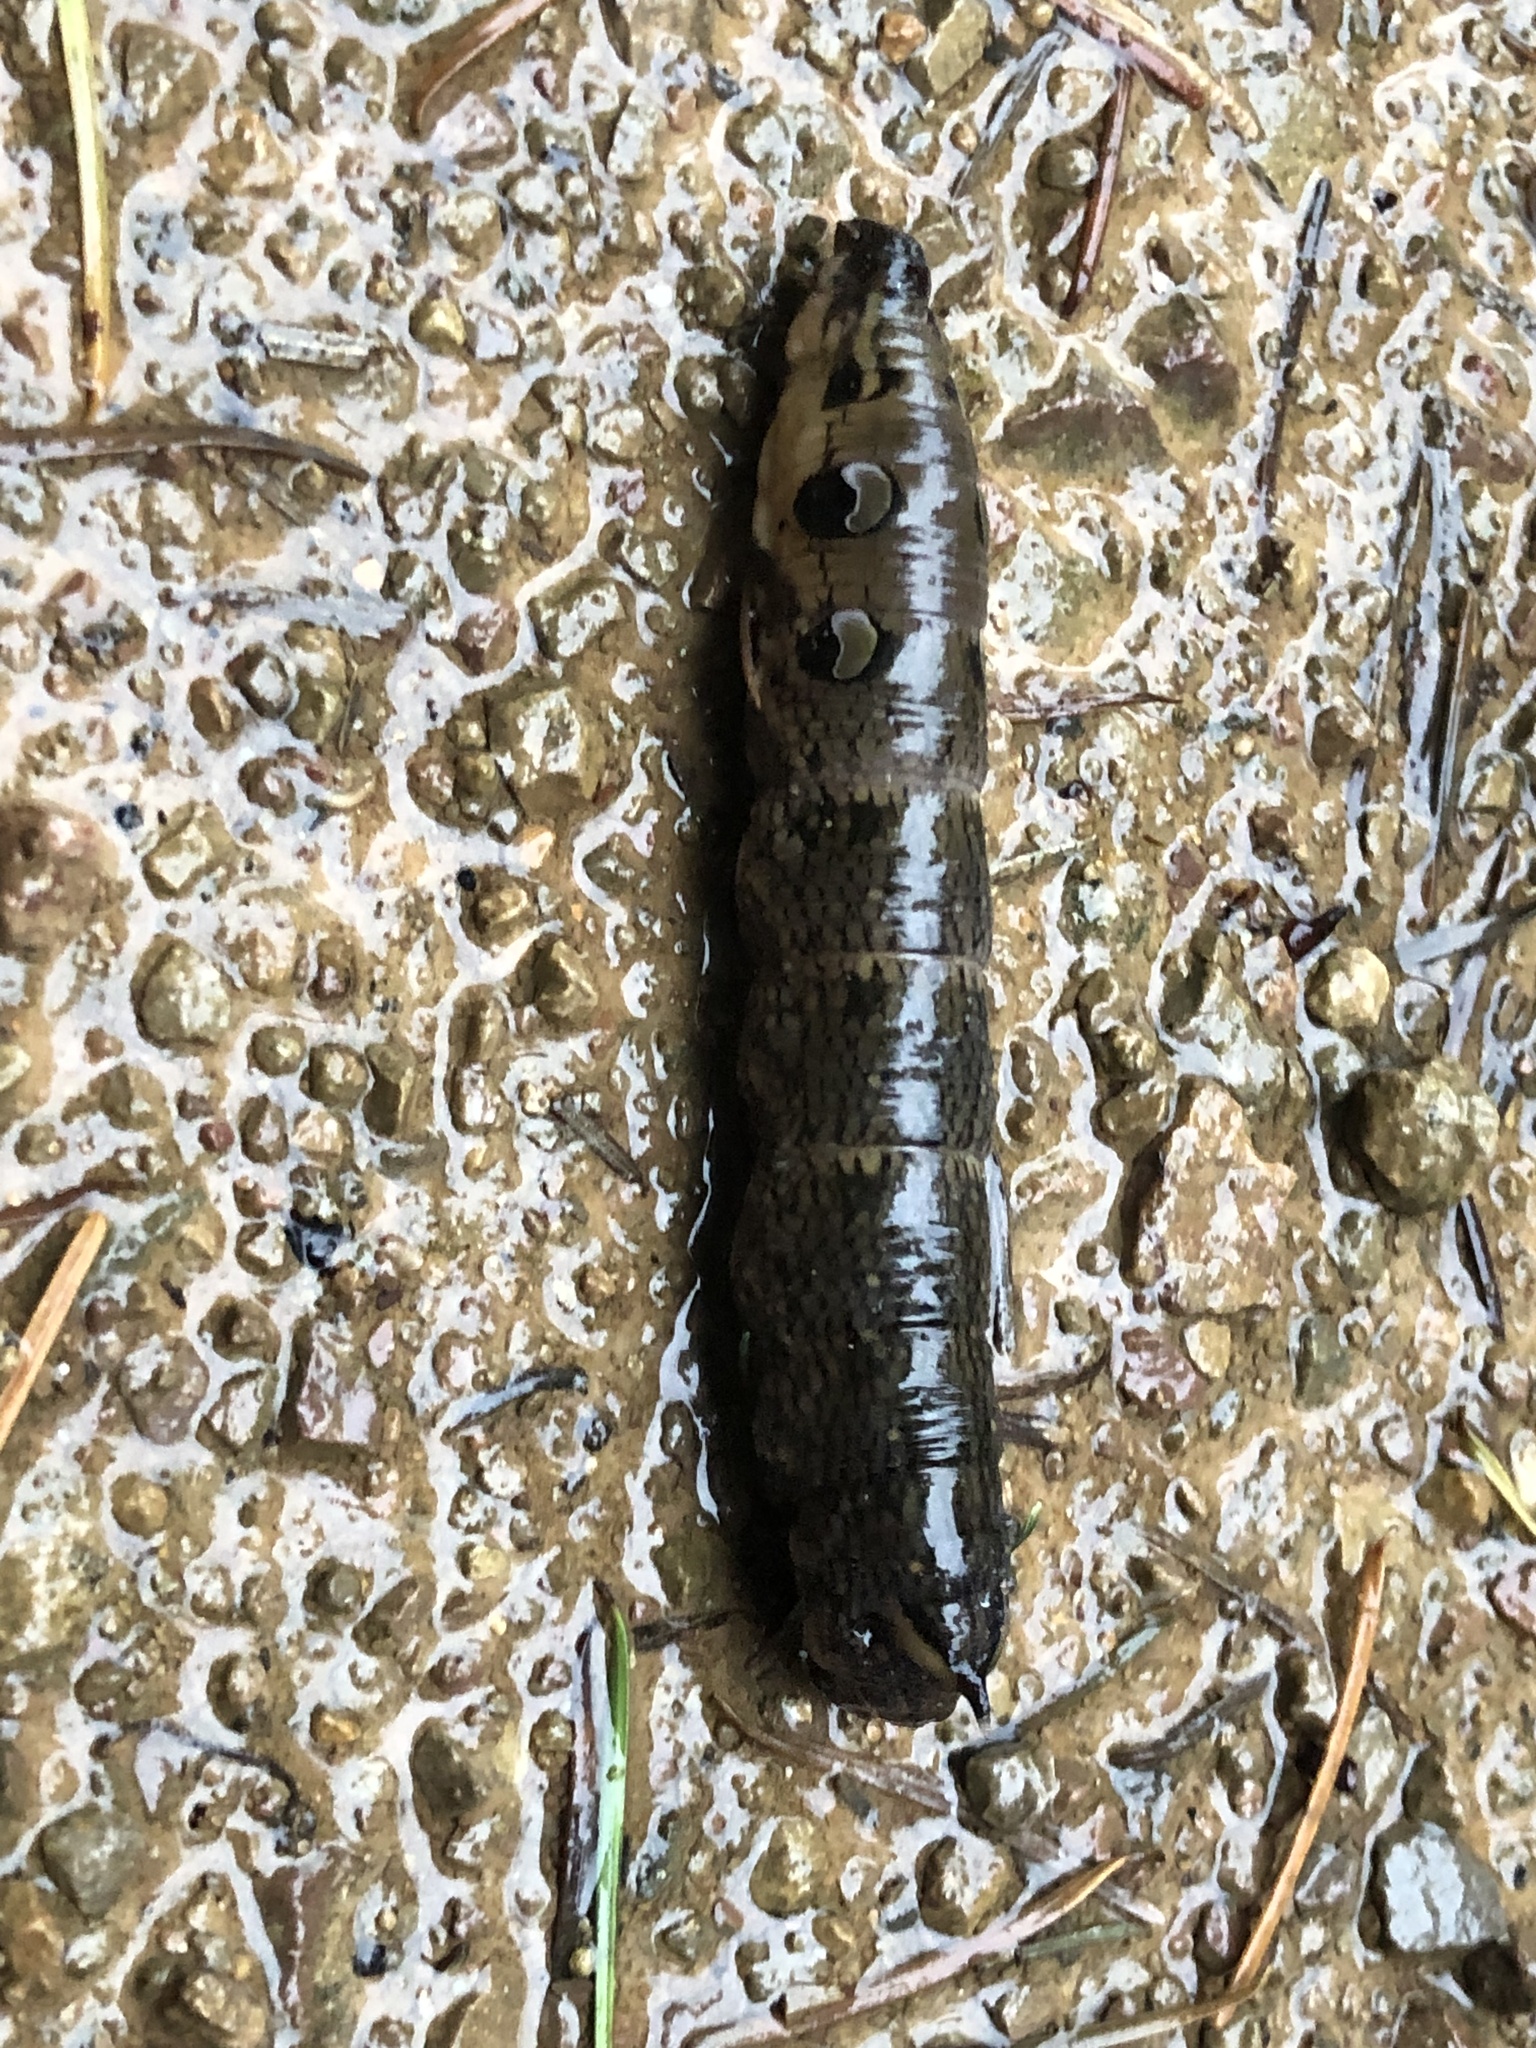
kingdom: Animalia
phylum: Arthropoda
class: Insecta
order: Lepidoptera
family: Sphingidae
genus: Deilephila
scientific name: Deilephila elpenor
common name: Elephant hawk-moth
